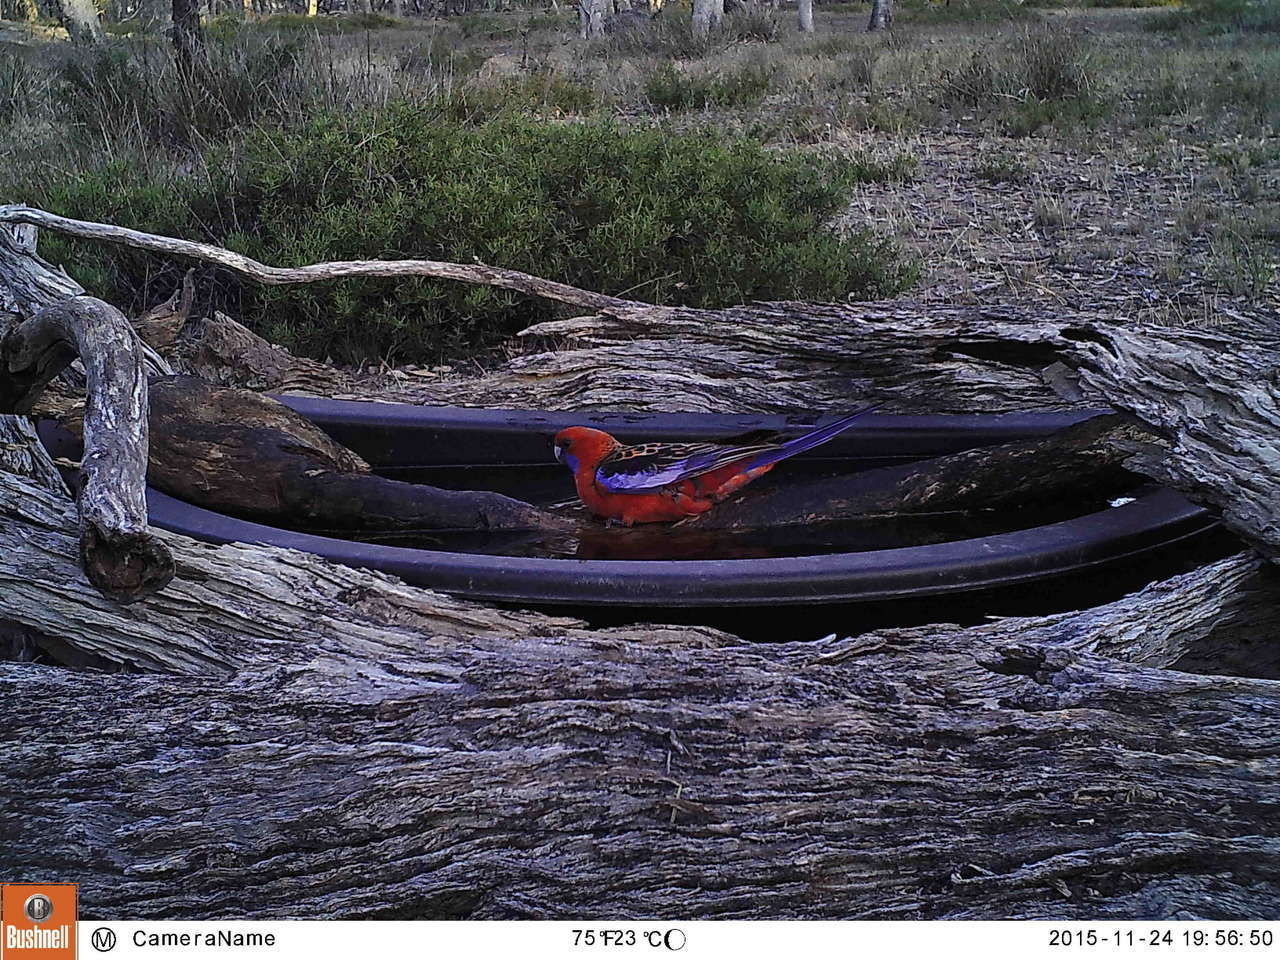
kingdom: Animalia
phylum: Chordata
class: Aves
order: Psittaciformes
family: Psittacidae
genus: Platycercus
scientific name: Platycercus elegans
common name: Crimson rosella
